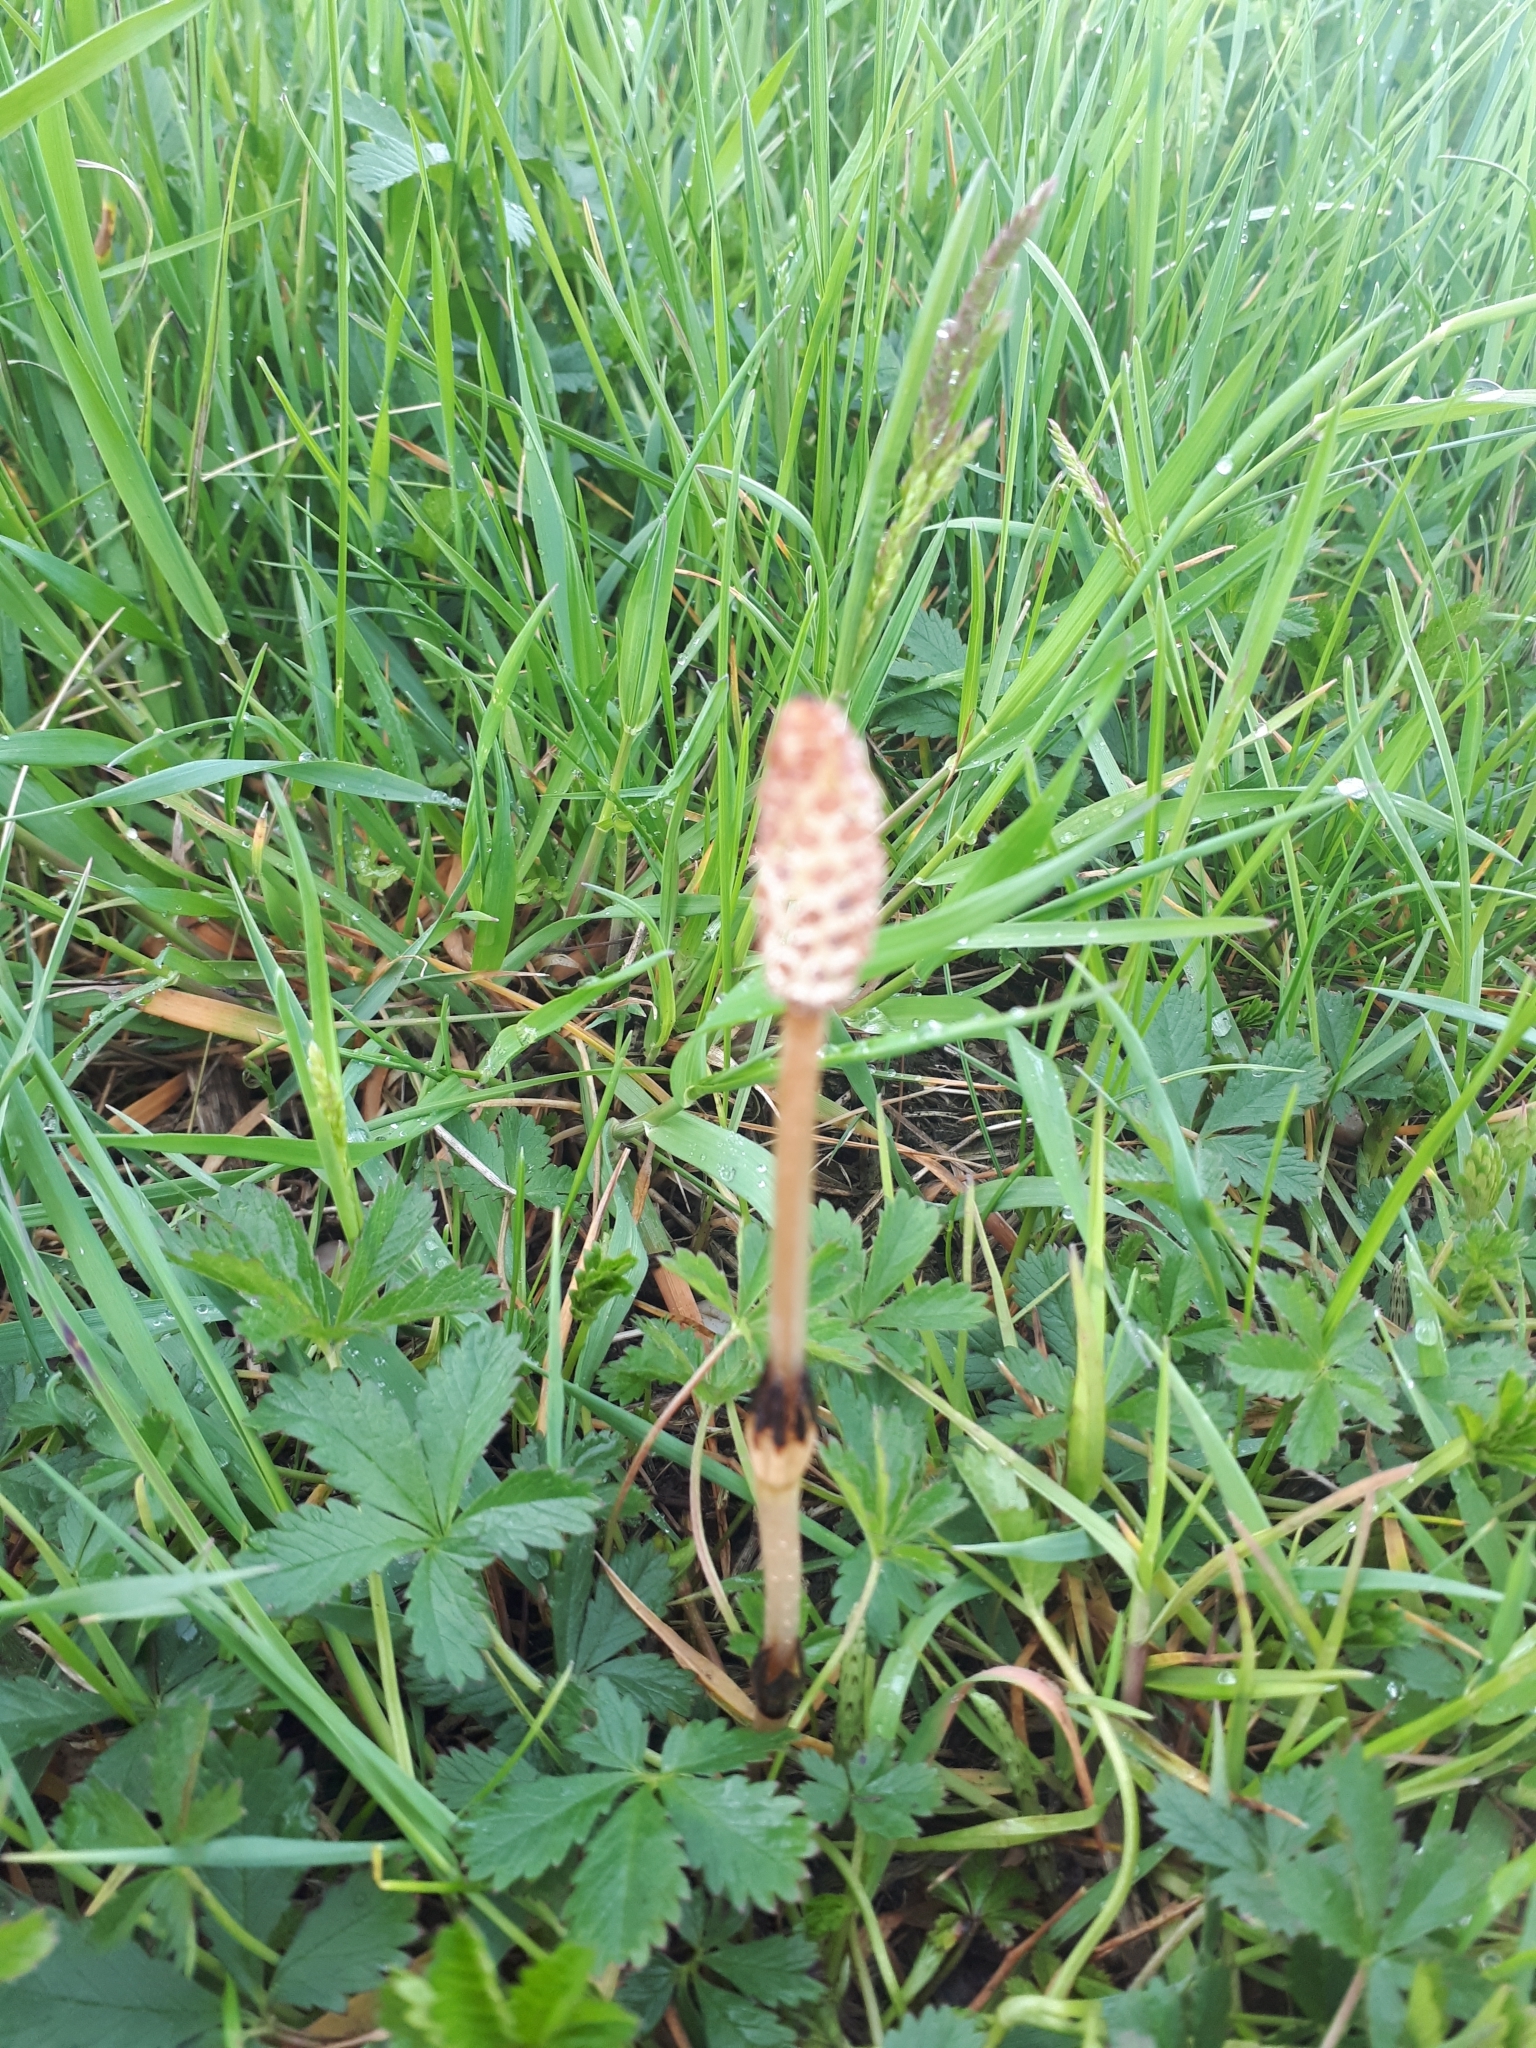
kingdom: Plantae
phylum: Tracheophyta
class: Polypodiopsida
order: Equisetales
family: Equisetaceae
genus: Equisetum
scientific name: Equisetum arvense
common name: Field horsetail
